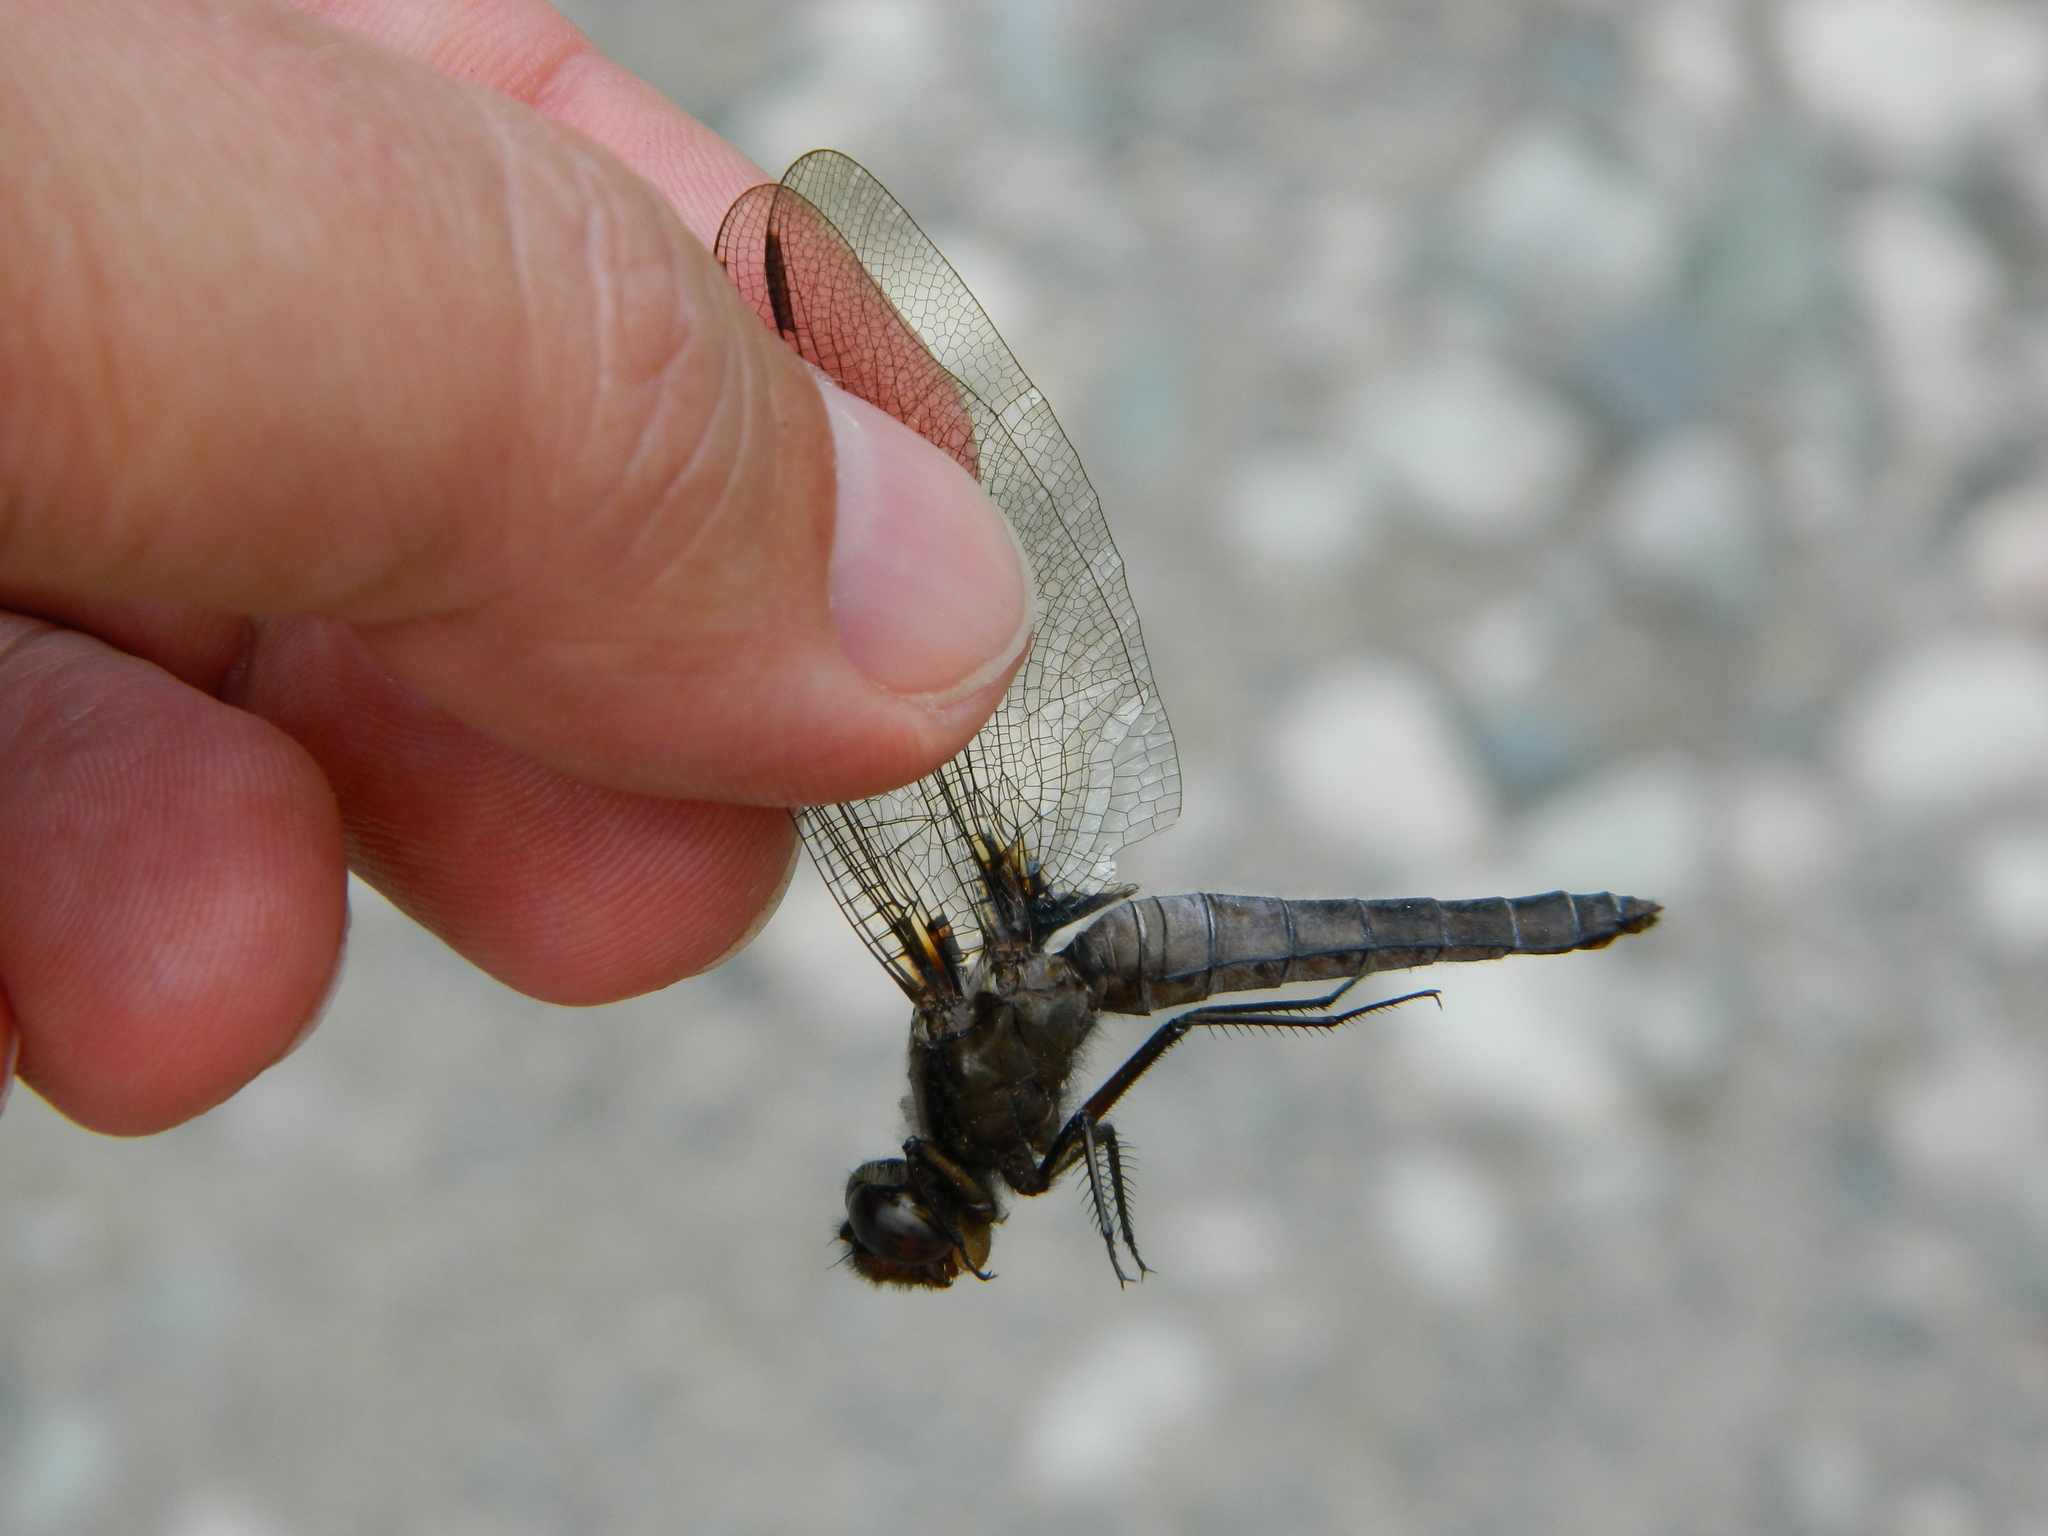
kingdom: Animalia
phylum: Arthropoda
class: Insecta
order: Odonata
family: Libellulidae
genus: Ladona
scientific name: Ladona julia
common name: Chalk-fronted corporal
